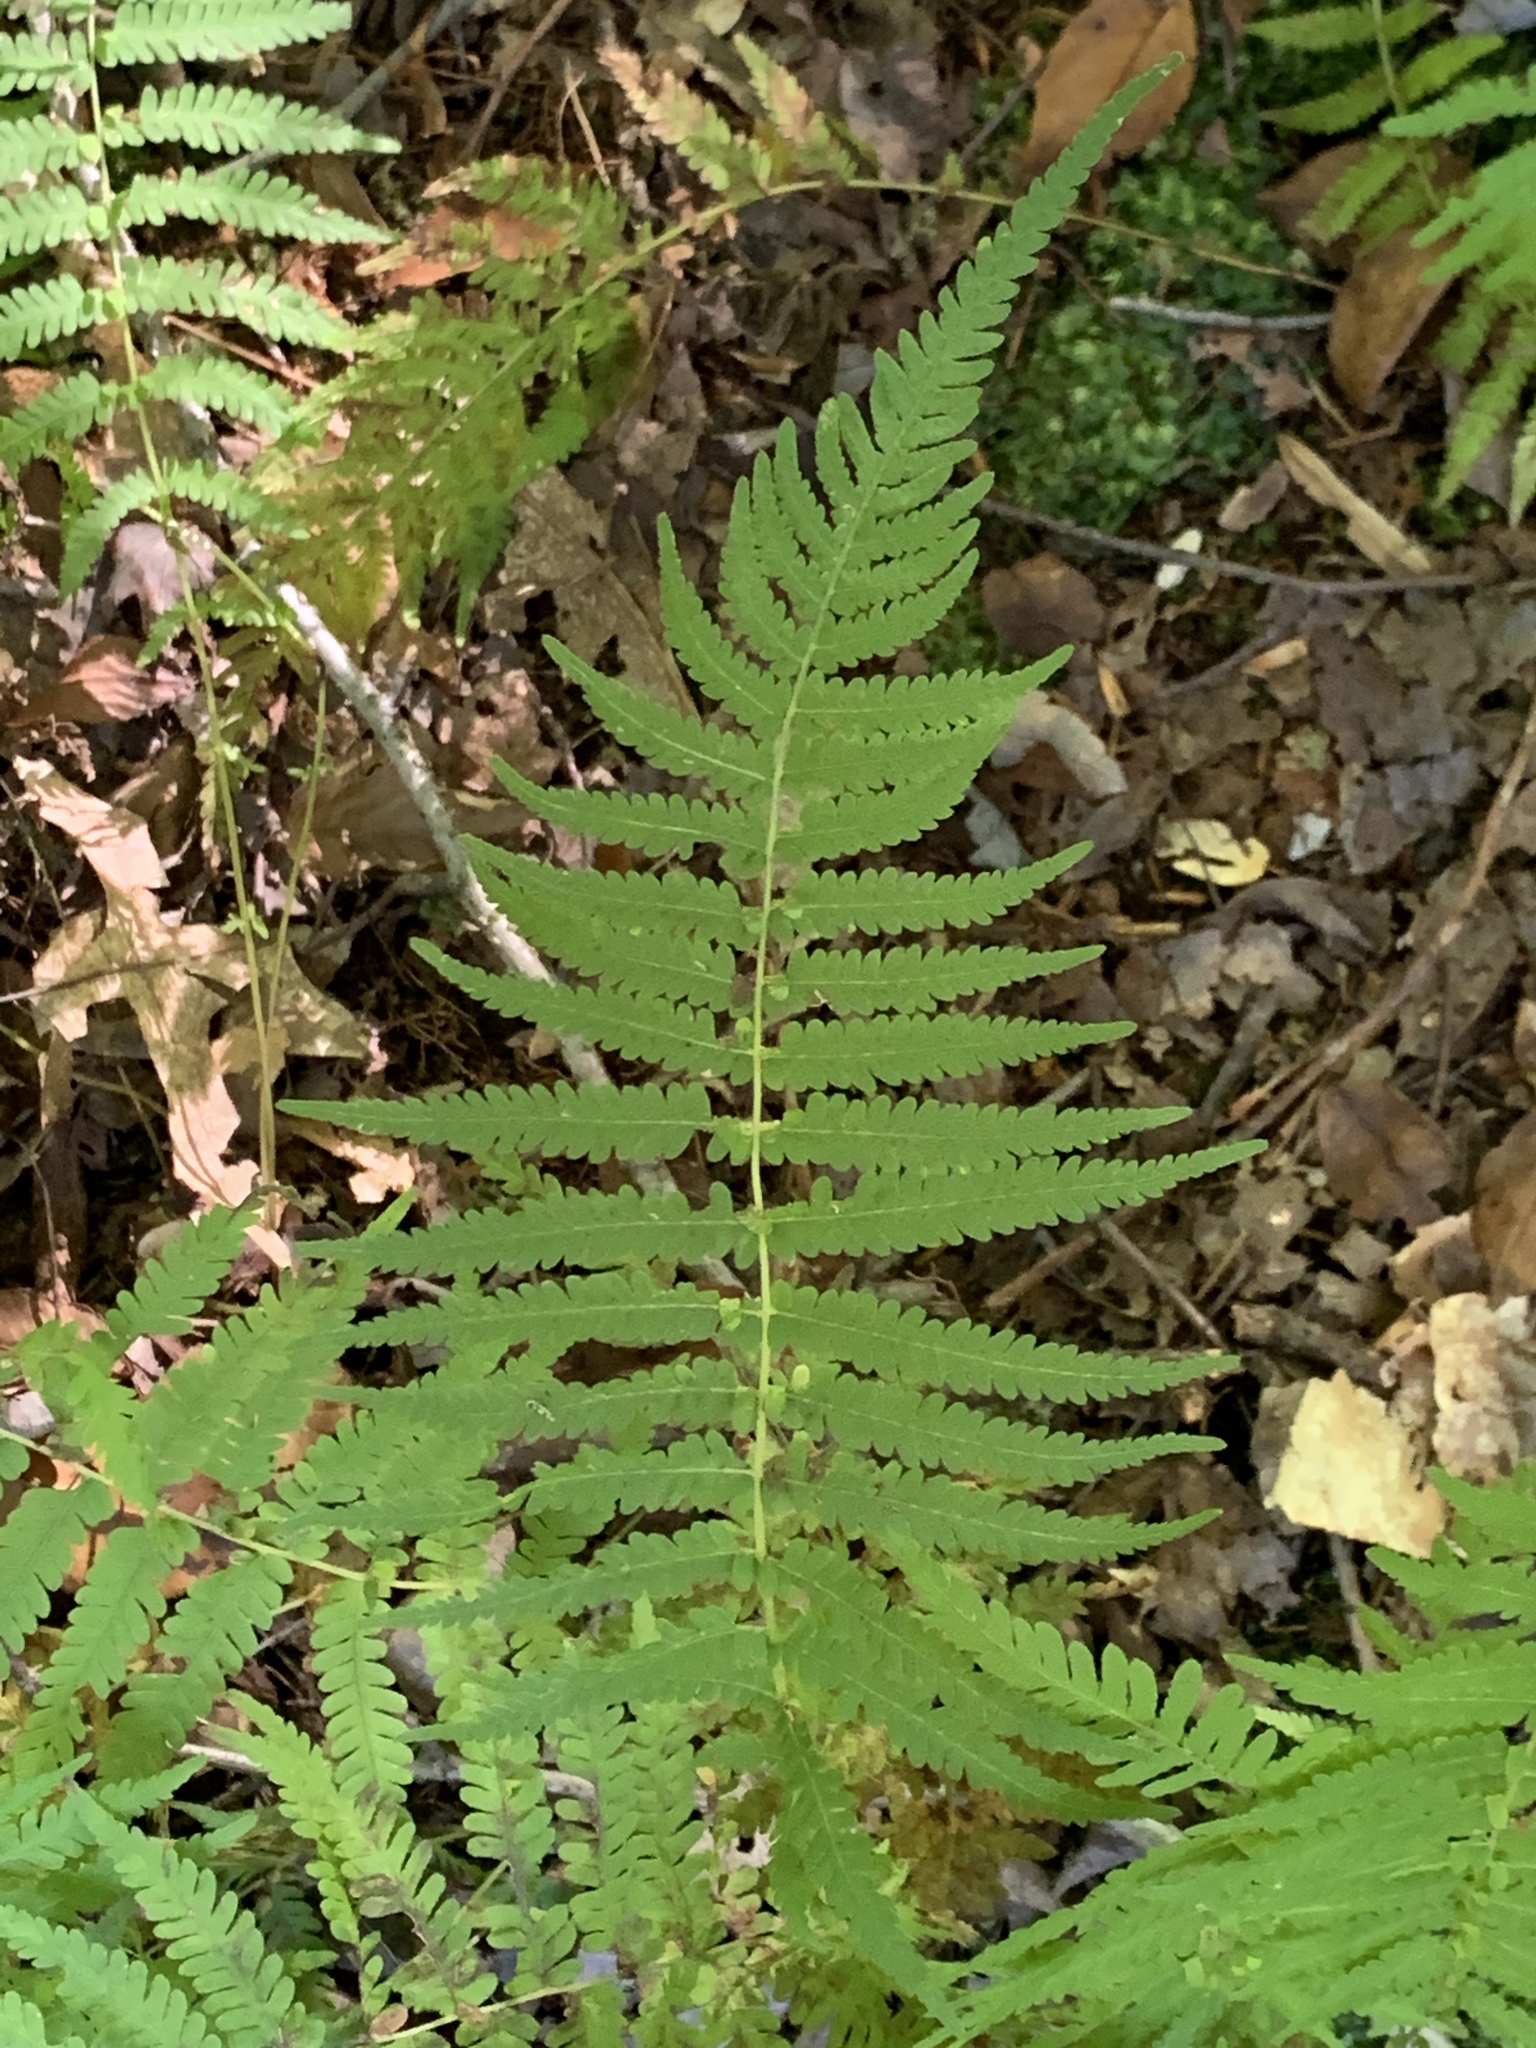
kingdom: Plantae
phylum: Tracheophyta
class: Polypodiopsida
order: Polypodiales
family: Thelypteridaceae
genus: Amauropelta
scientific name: Amauropelta noveboracensis
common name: New york fern
